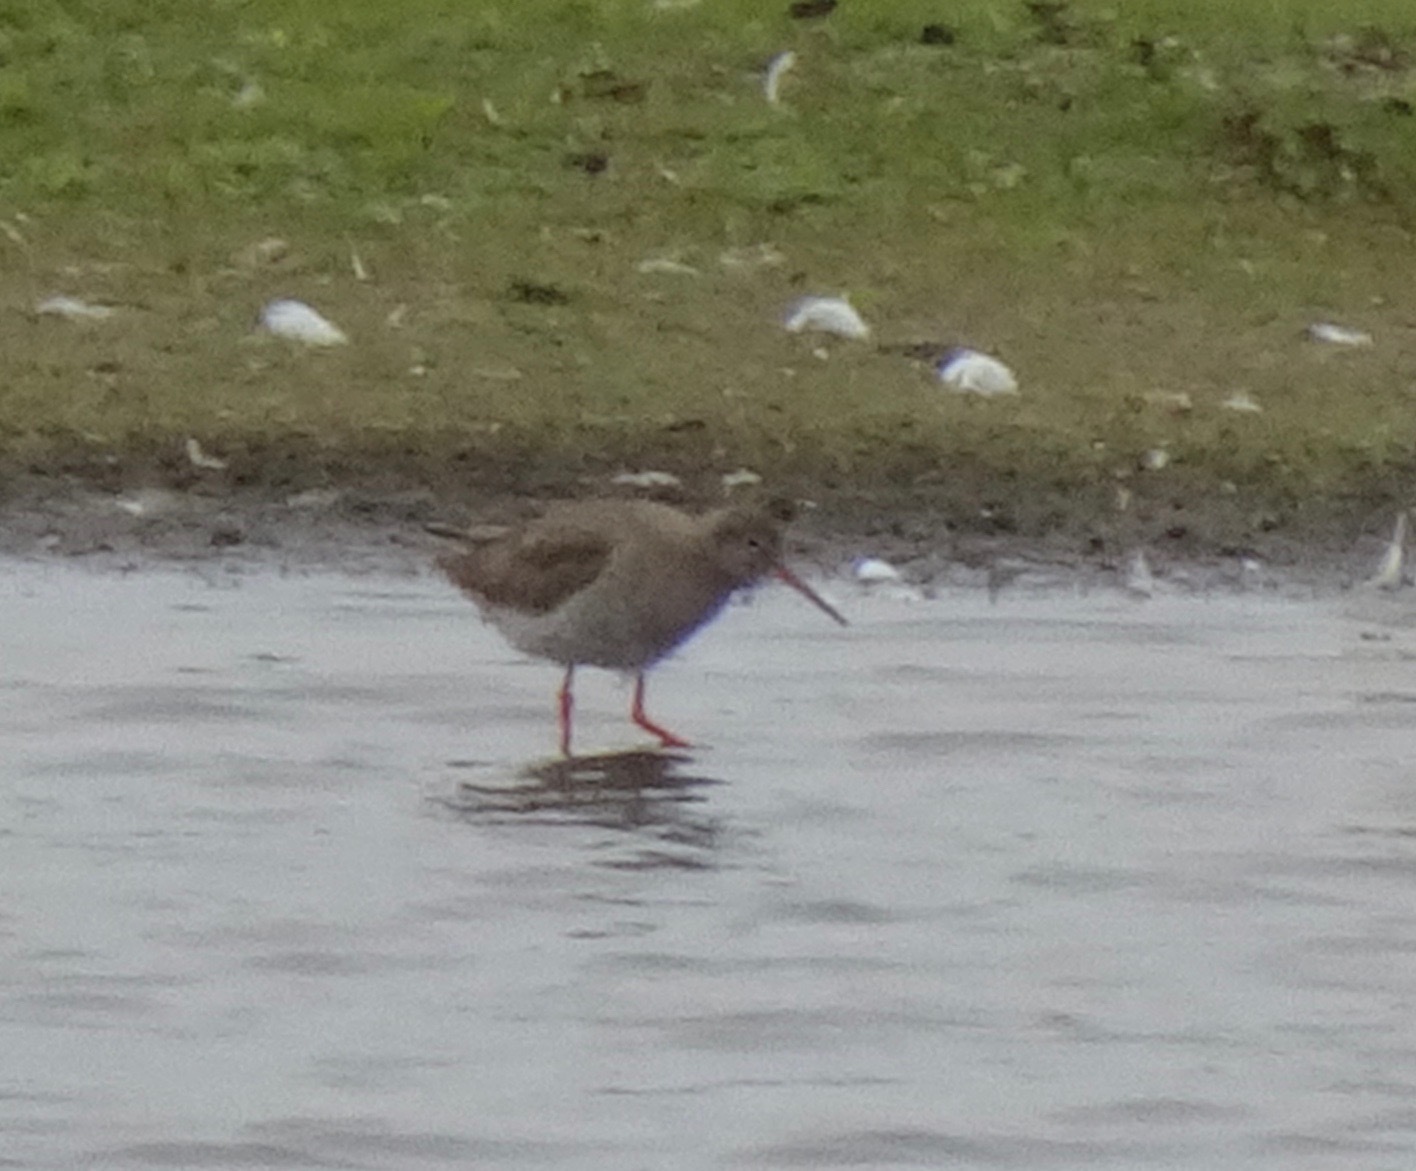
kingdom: Animalia
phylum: Chordata
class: Aves
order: Charadriiformes
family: Scolopacidae
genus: Tringa
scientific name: Tringa totanus
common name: Common redshank
